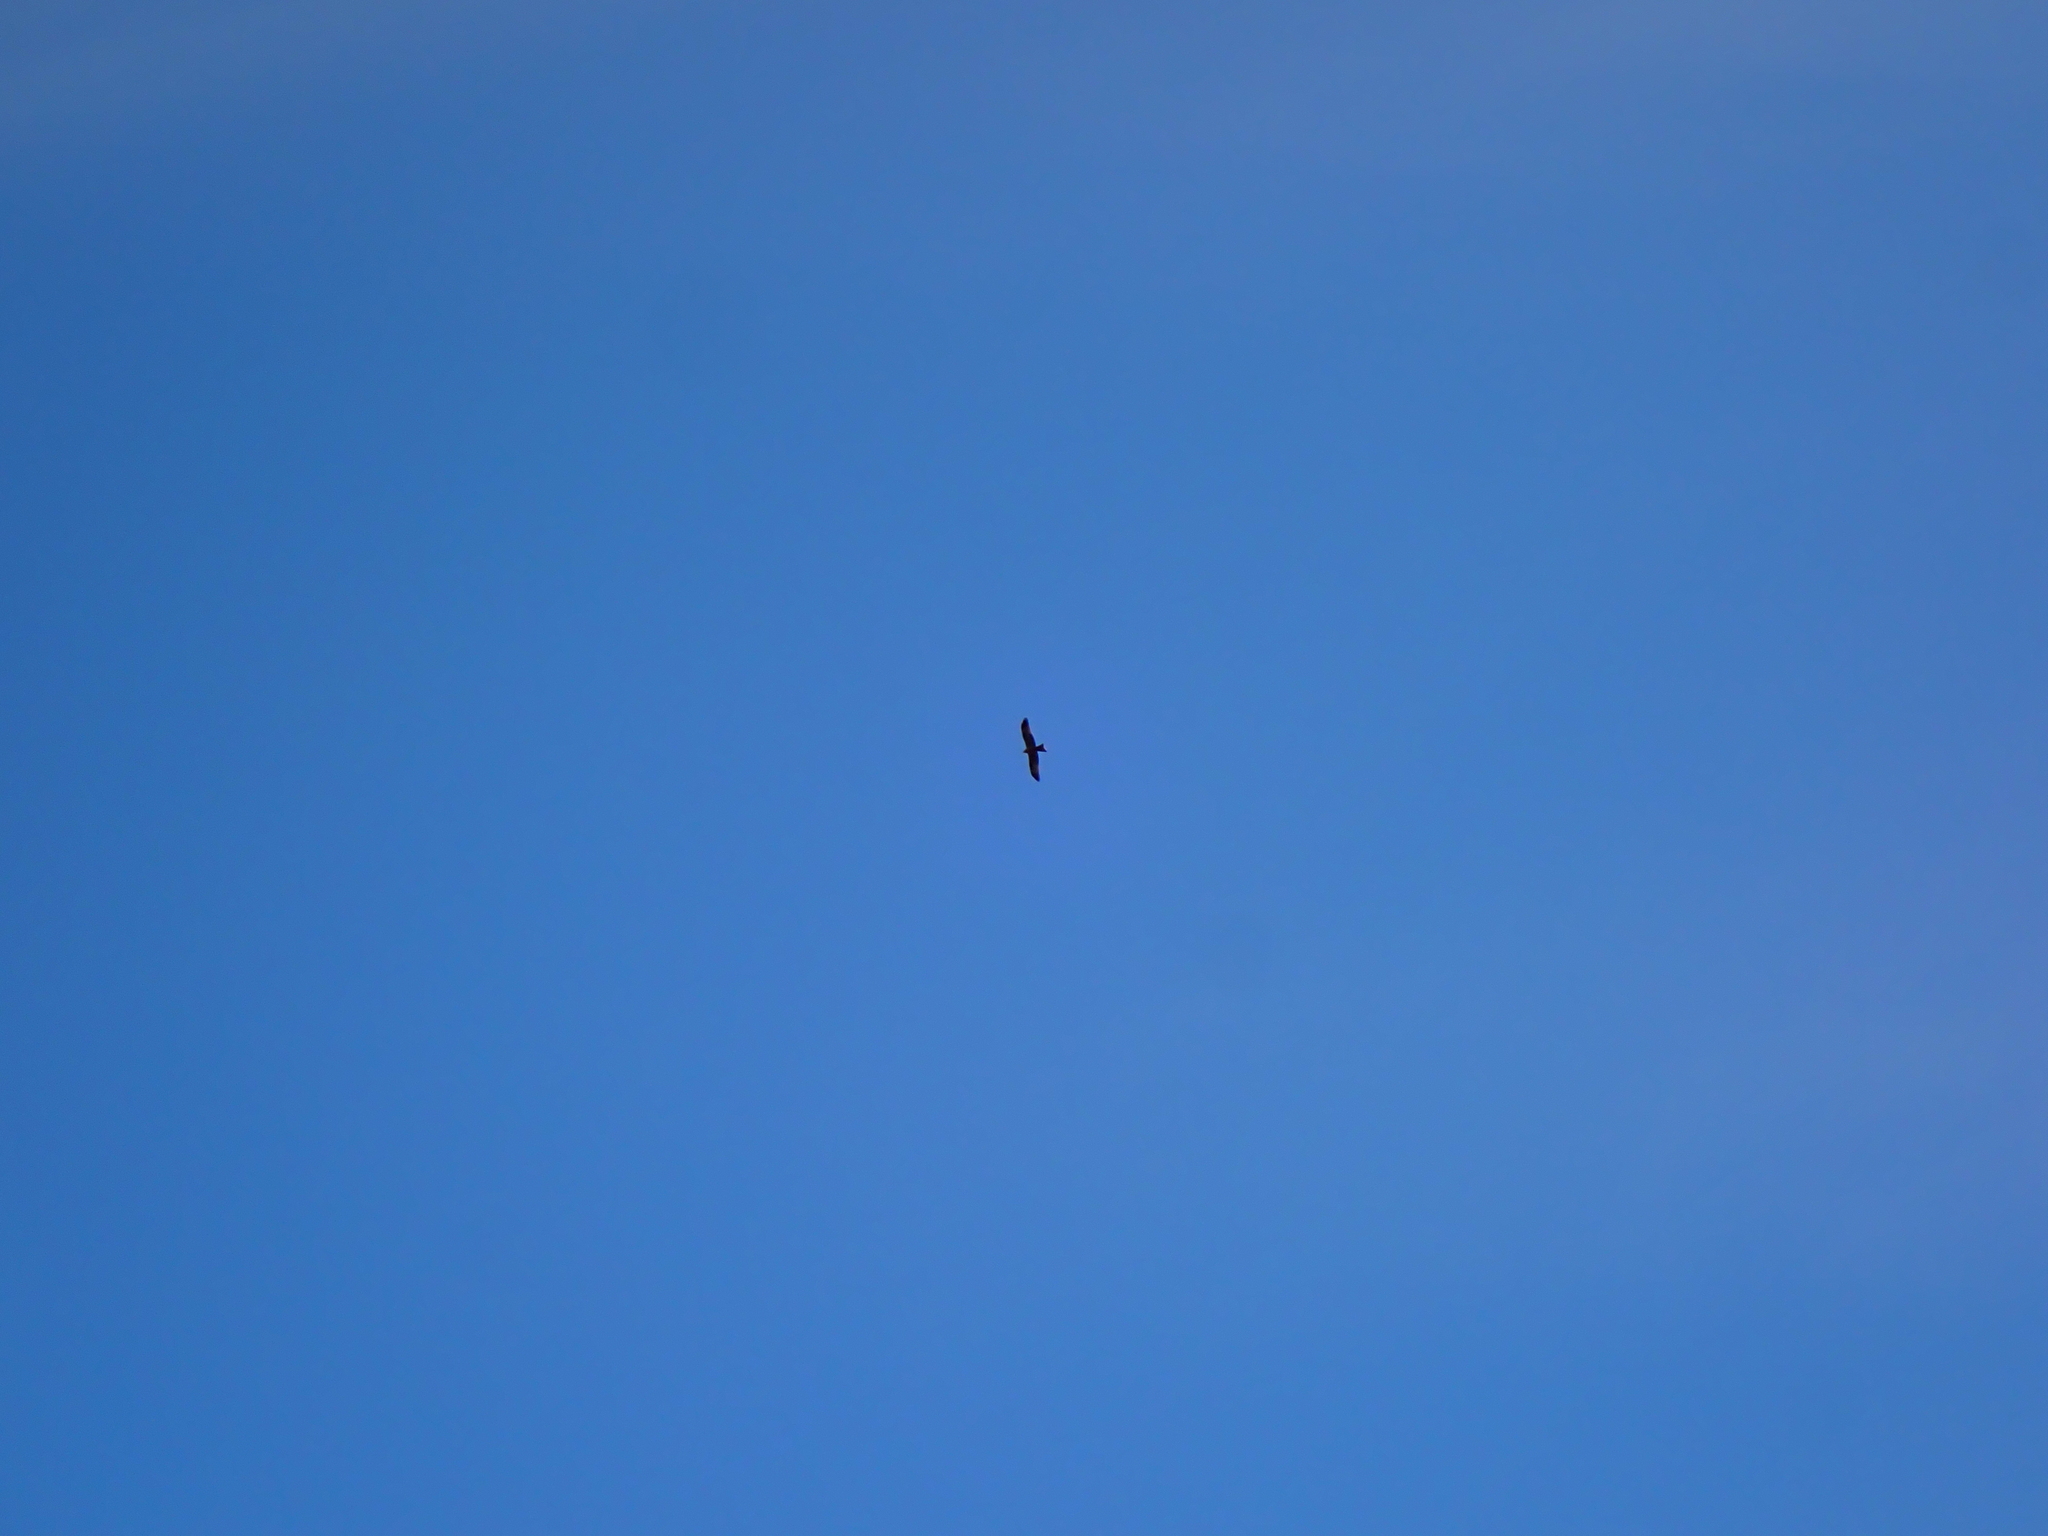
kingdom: Animalia
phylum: Chordata
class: Aves
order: Accipitriformes
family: Accipitridae
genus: Milvus
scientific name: Milvus migrans
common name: Black kite
